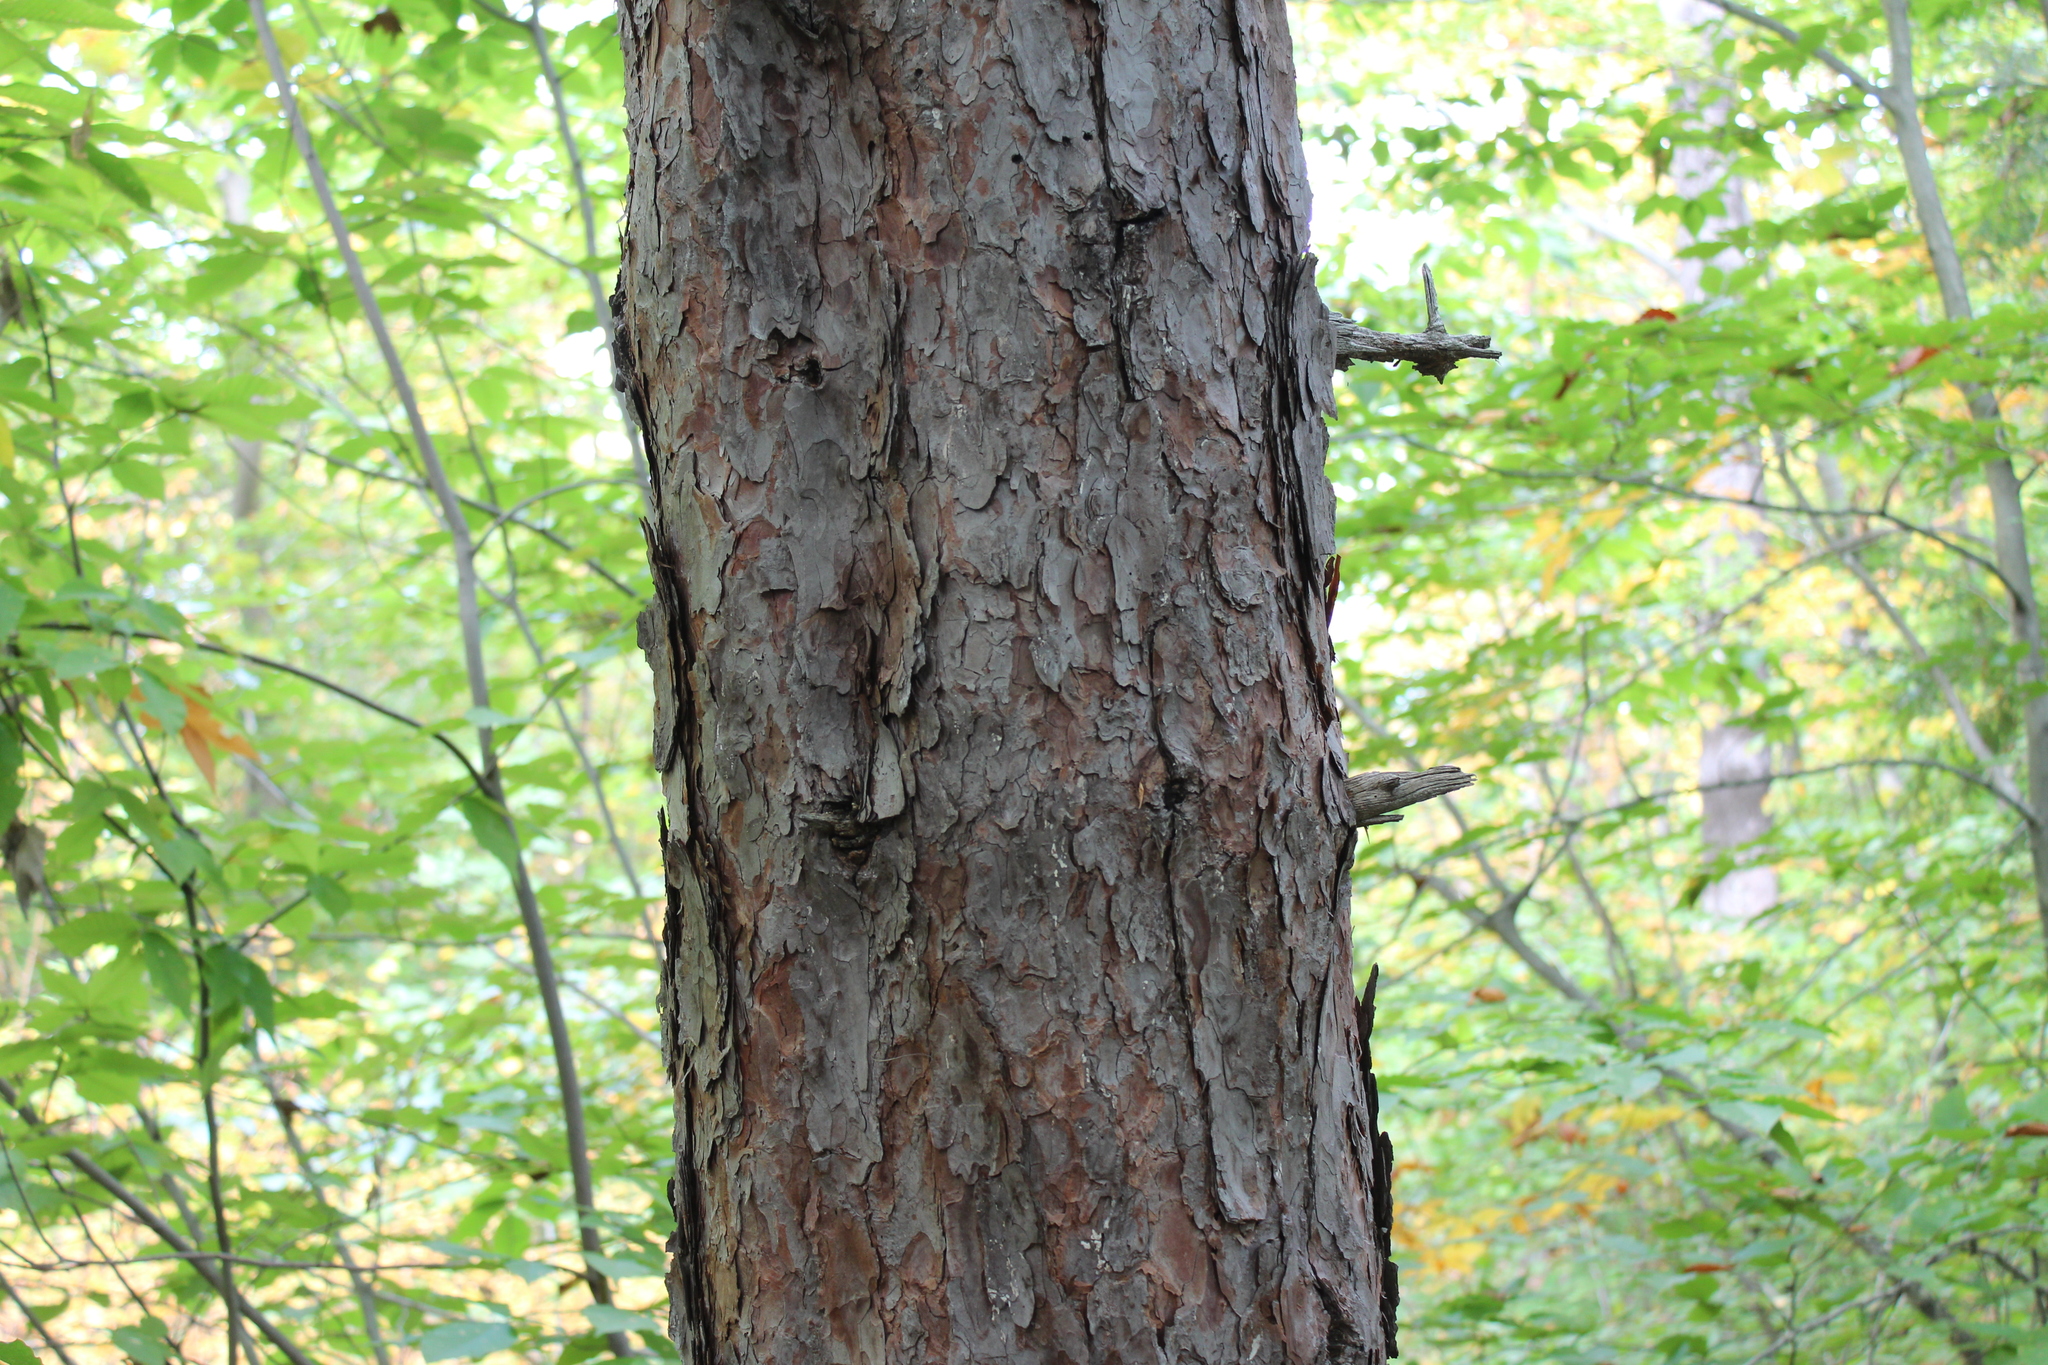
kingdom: Plantae
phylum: Tracheophyta
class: Pinopsida
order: Pinales
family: Pinaceae
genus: Pinus
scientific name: Pinus resinosa
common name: Norway pine
